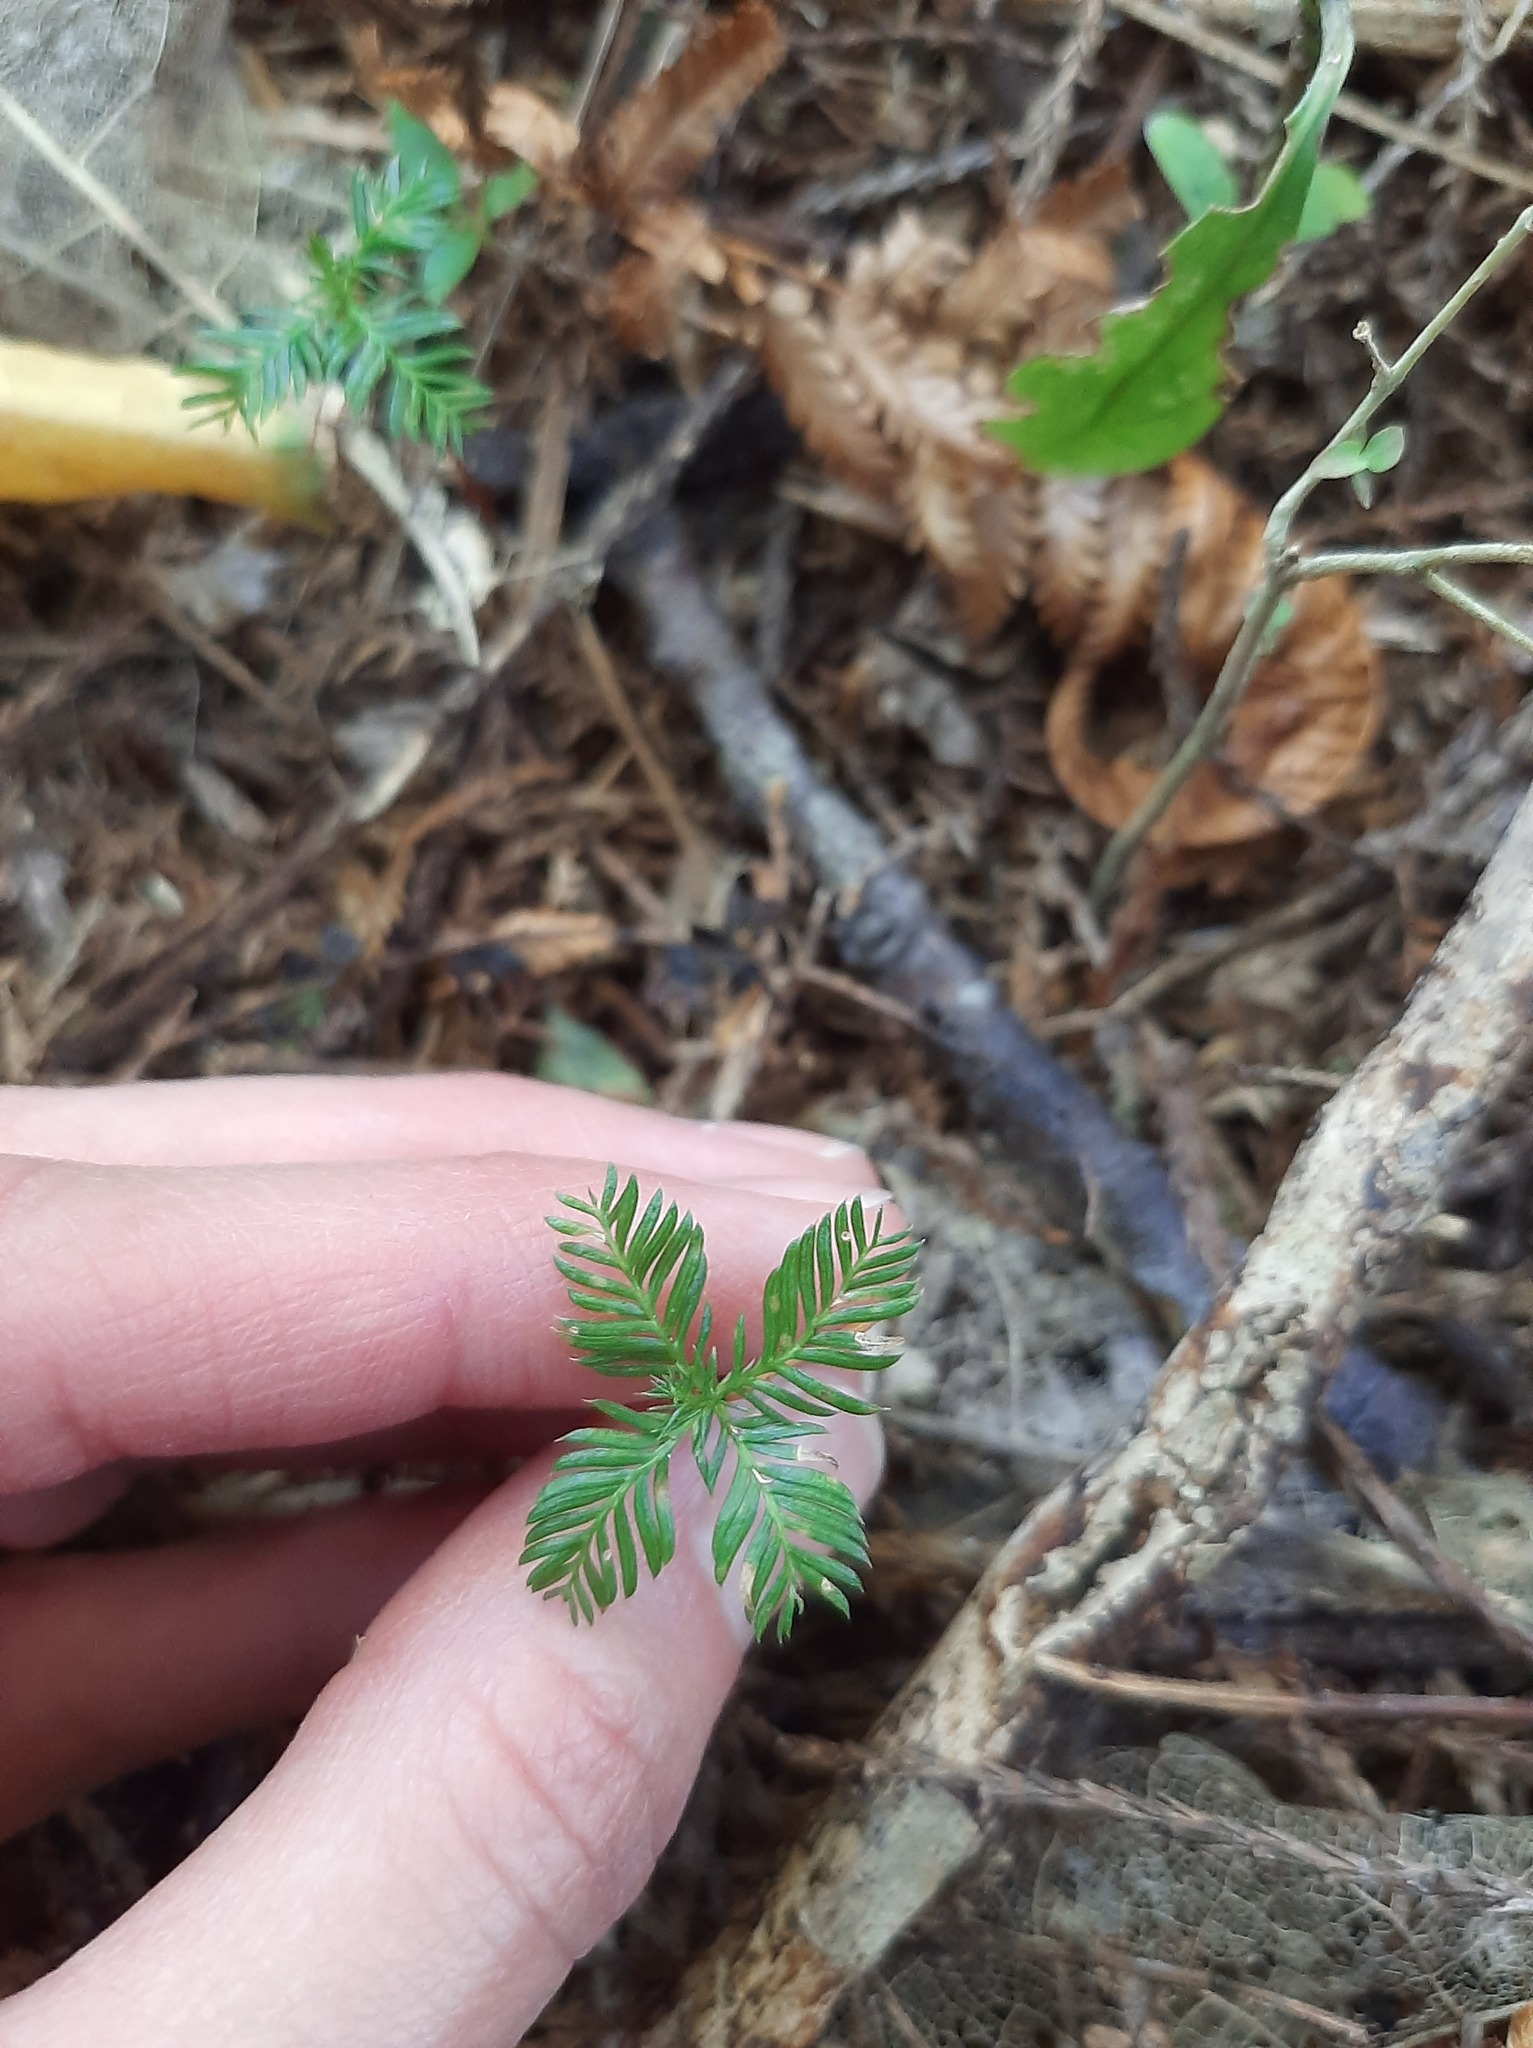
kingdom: Plantae
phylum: Tracheophyta
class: Pinopsida
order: Pinales
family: Podocarpaceae
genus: Dacrycarpus
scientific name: Dacrycarpus dacrydioides
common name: White pine
